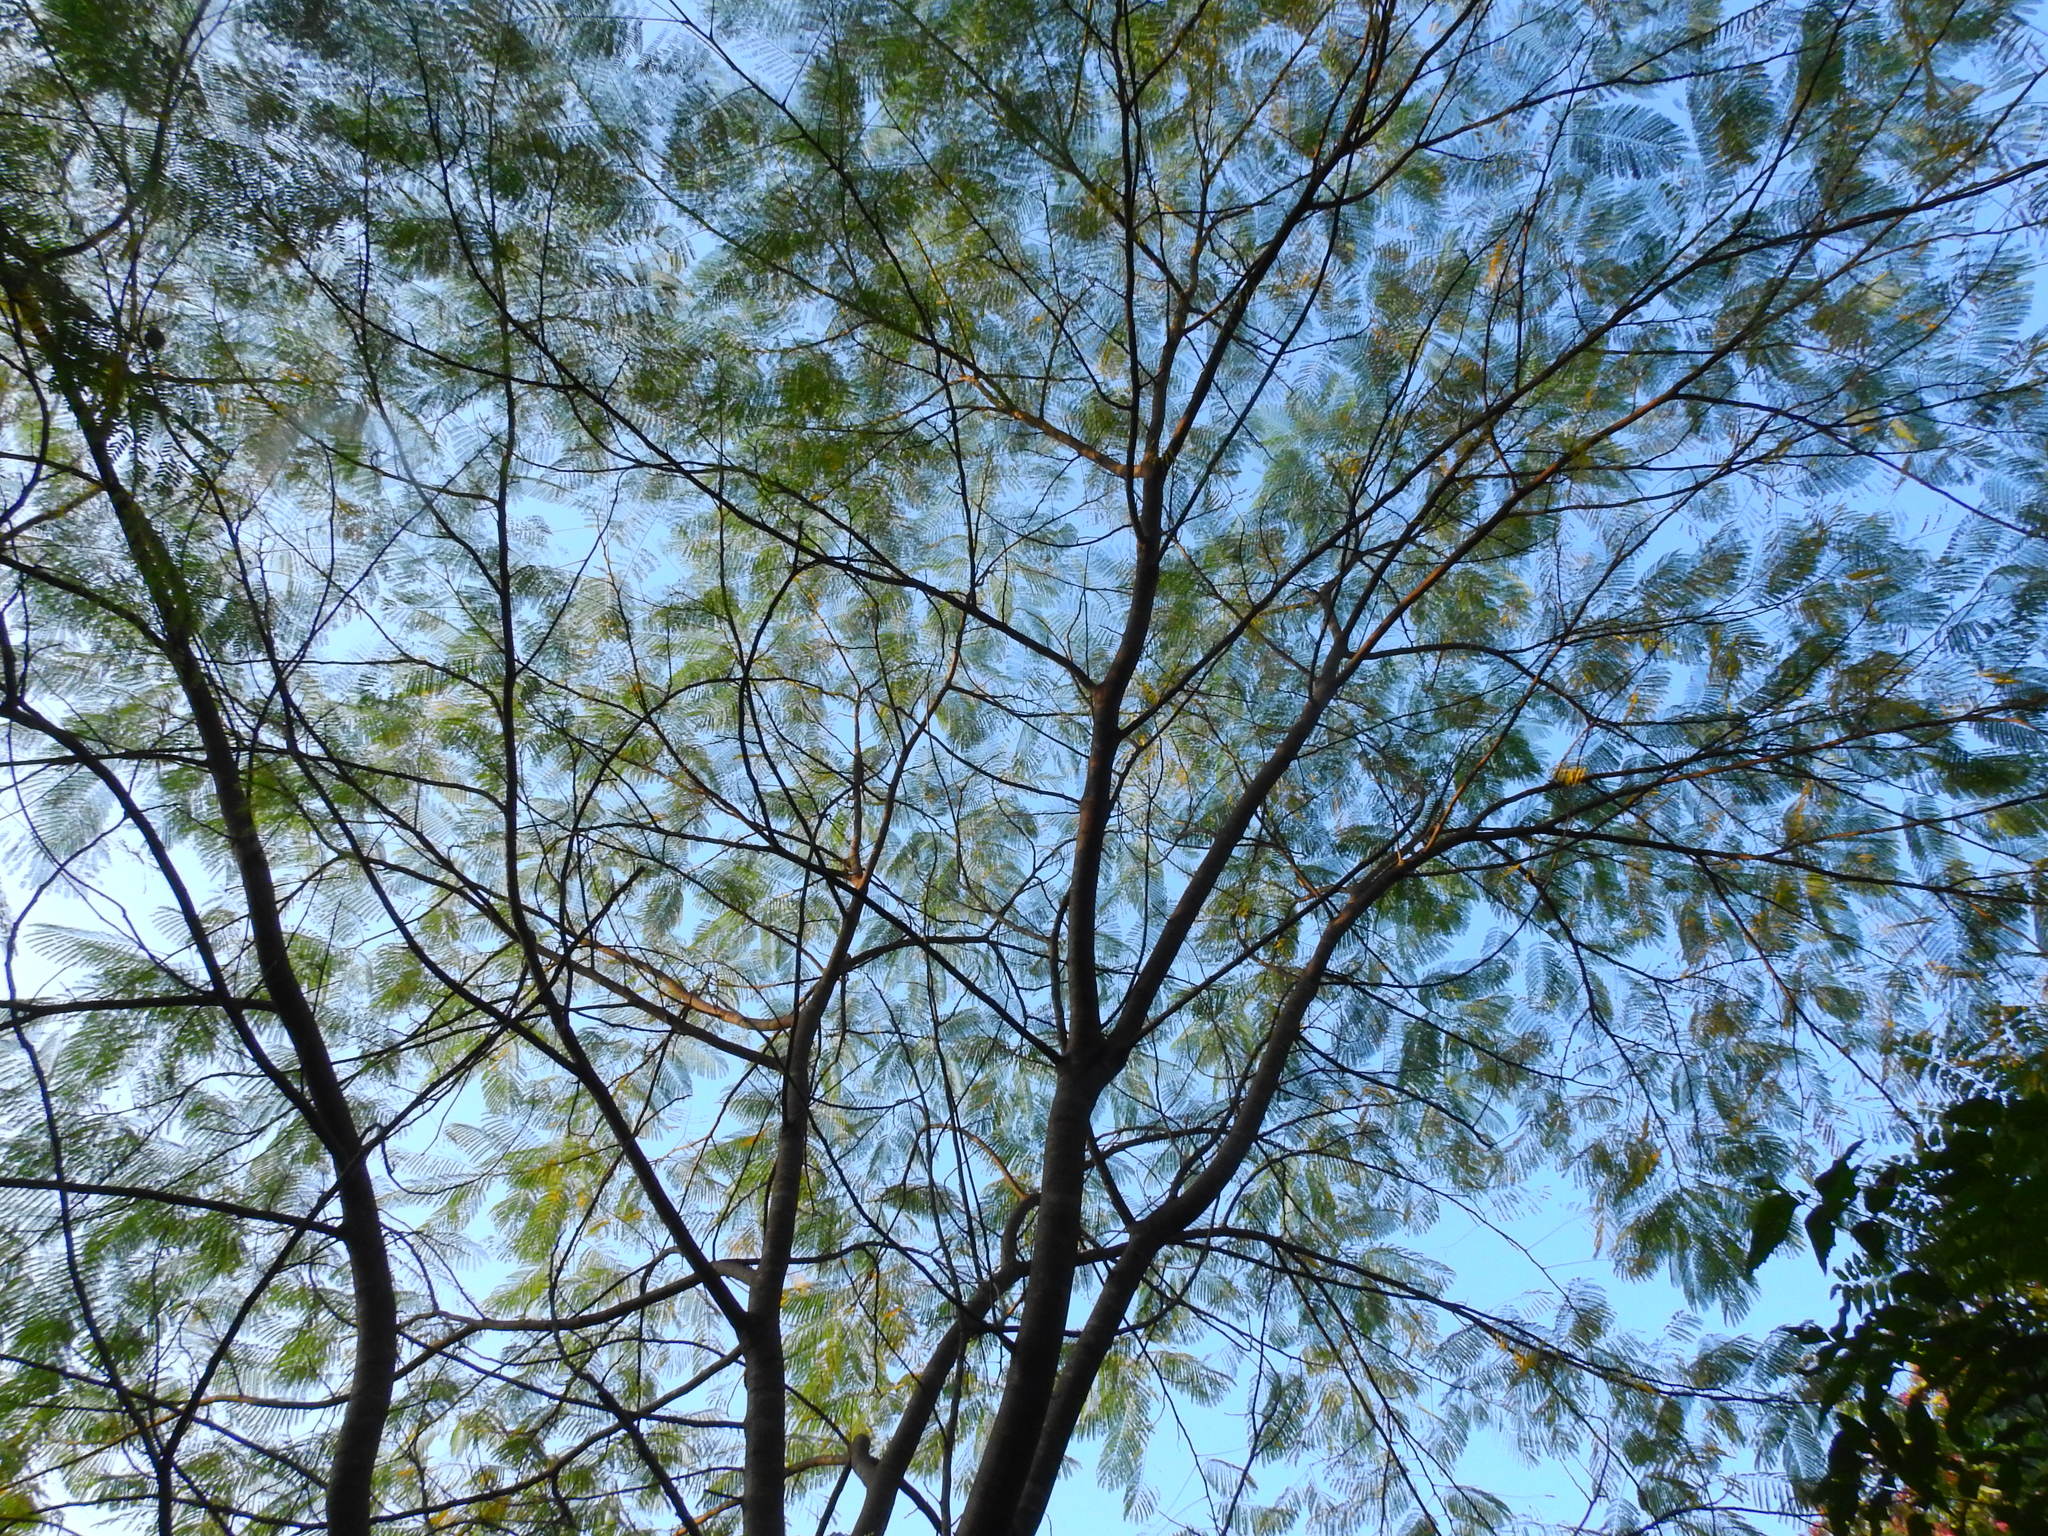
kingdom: Plantae
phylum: Tracheophyta
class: Magnoliopsida
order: Fabales
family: Fabaceae
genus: Delonix
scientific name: Delonix regia
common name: Royal poinciana
